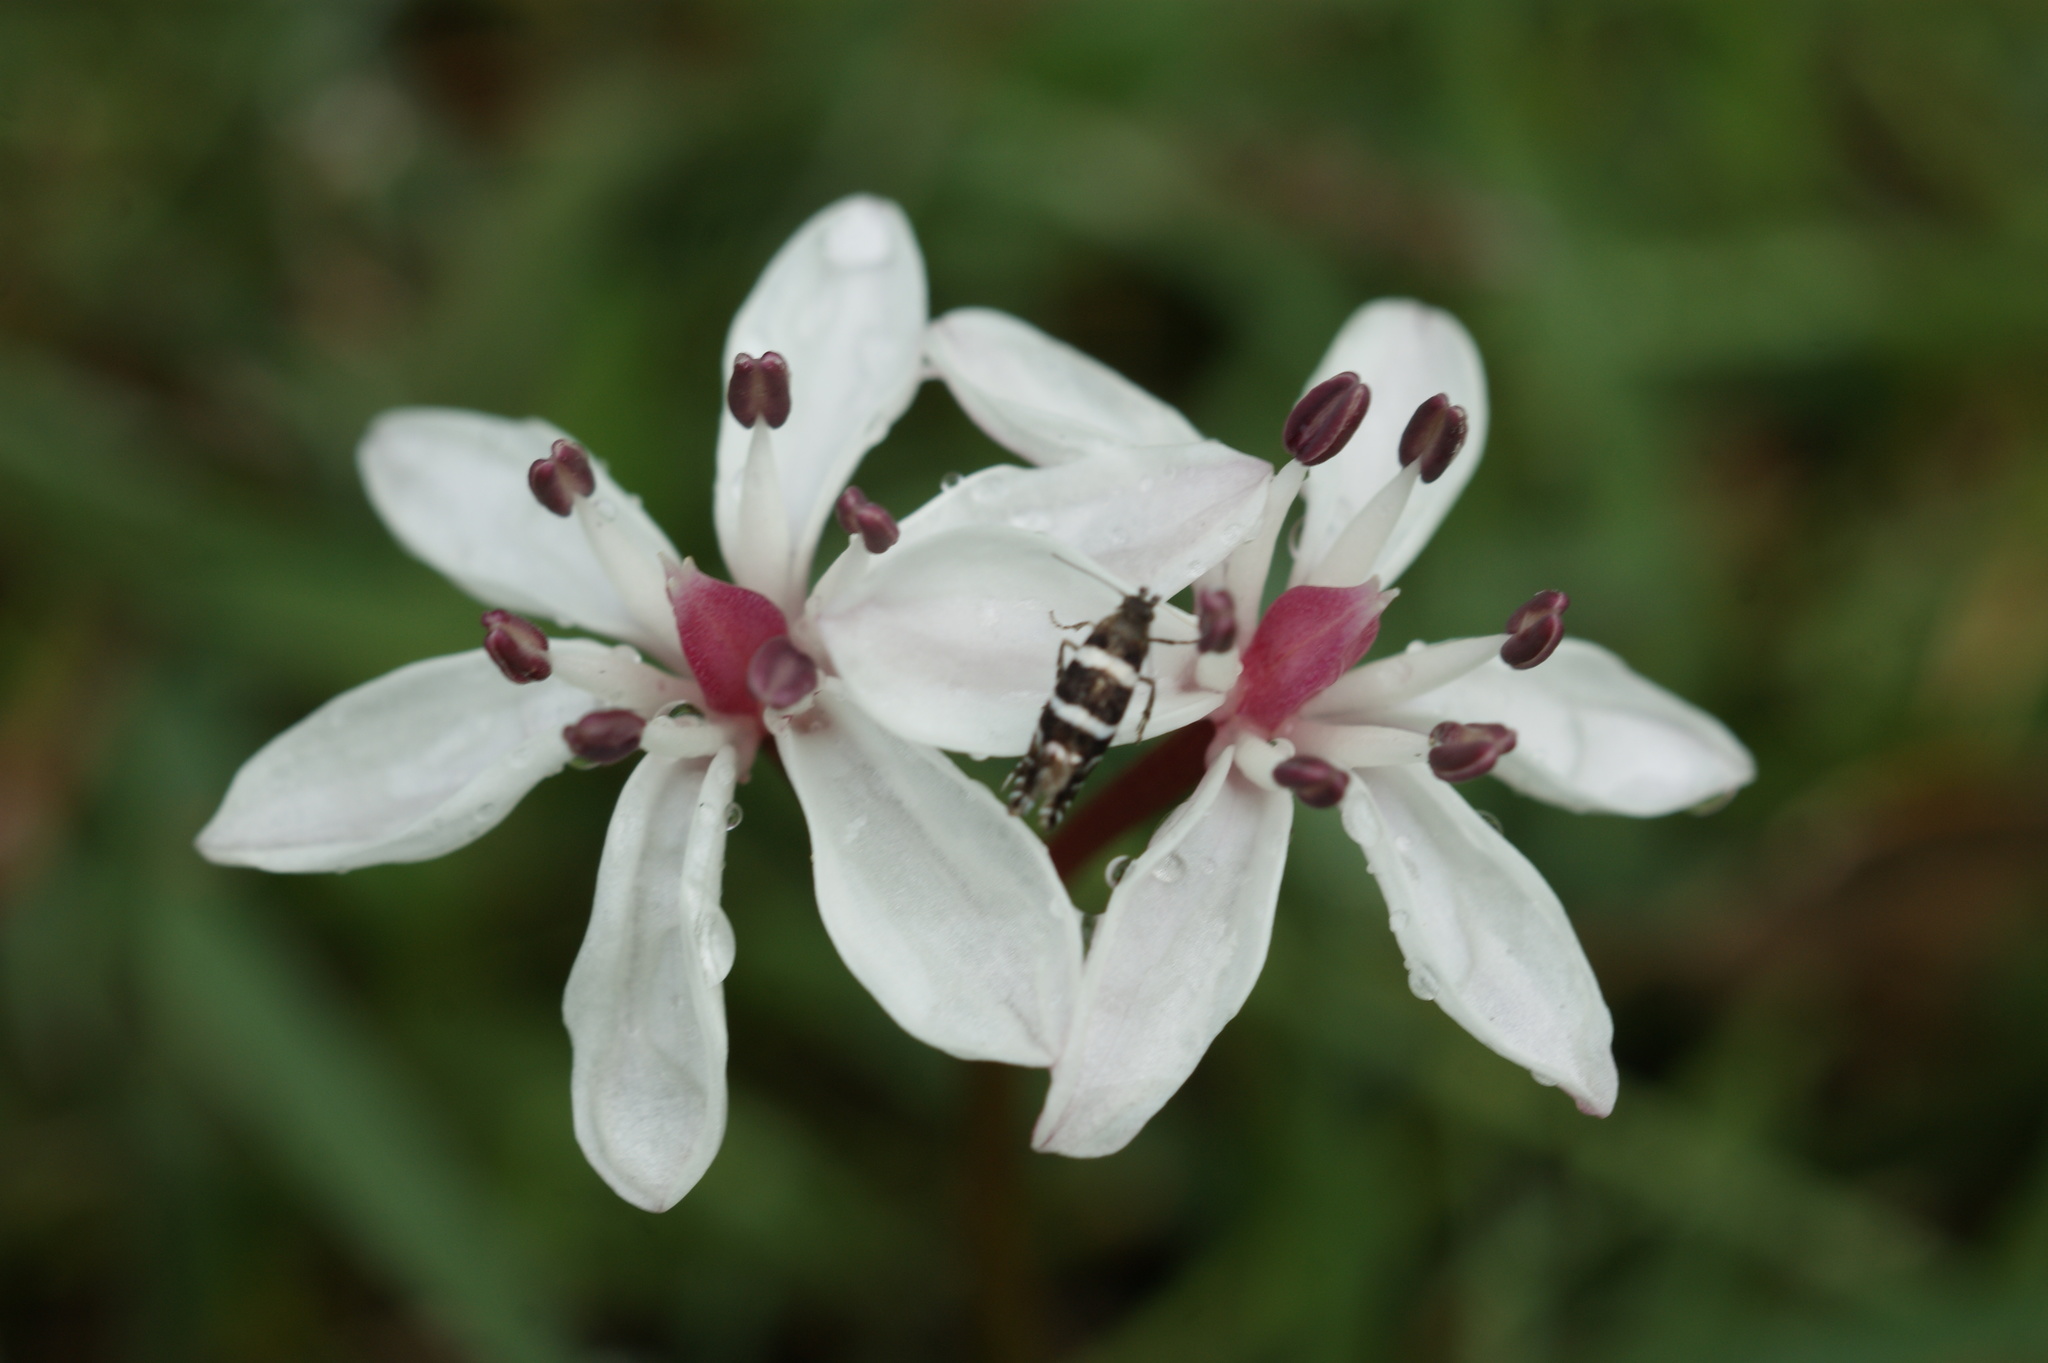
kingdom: Plantae
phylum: Tracheophyta
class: Liliopsida
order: Liliales
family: Colchicaceae
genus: Burchardia
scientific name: Burchardia umbellata
